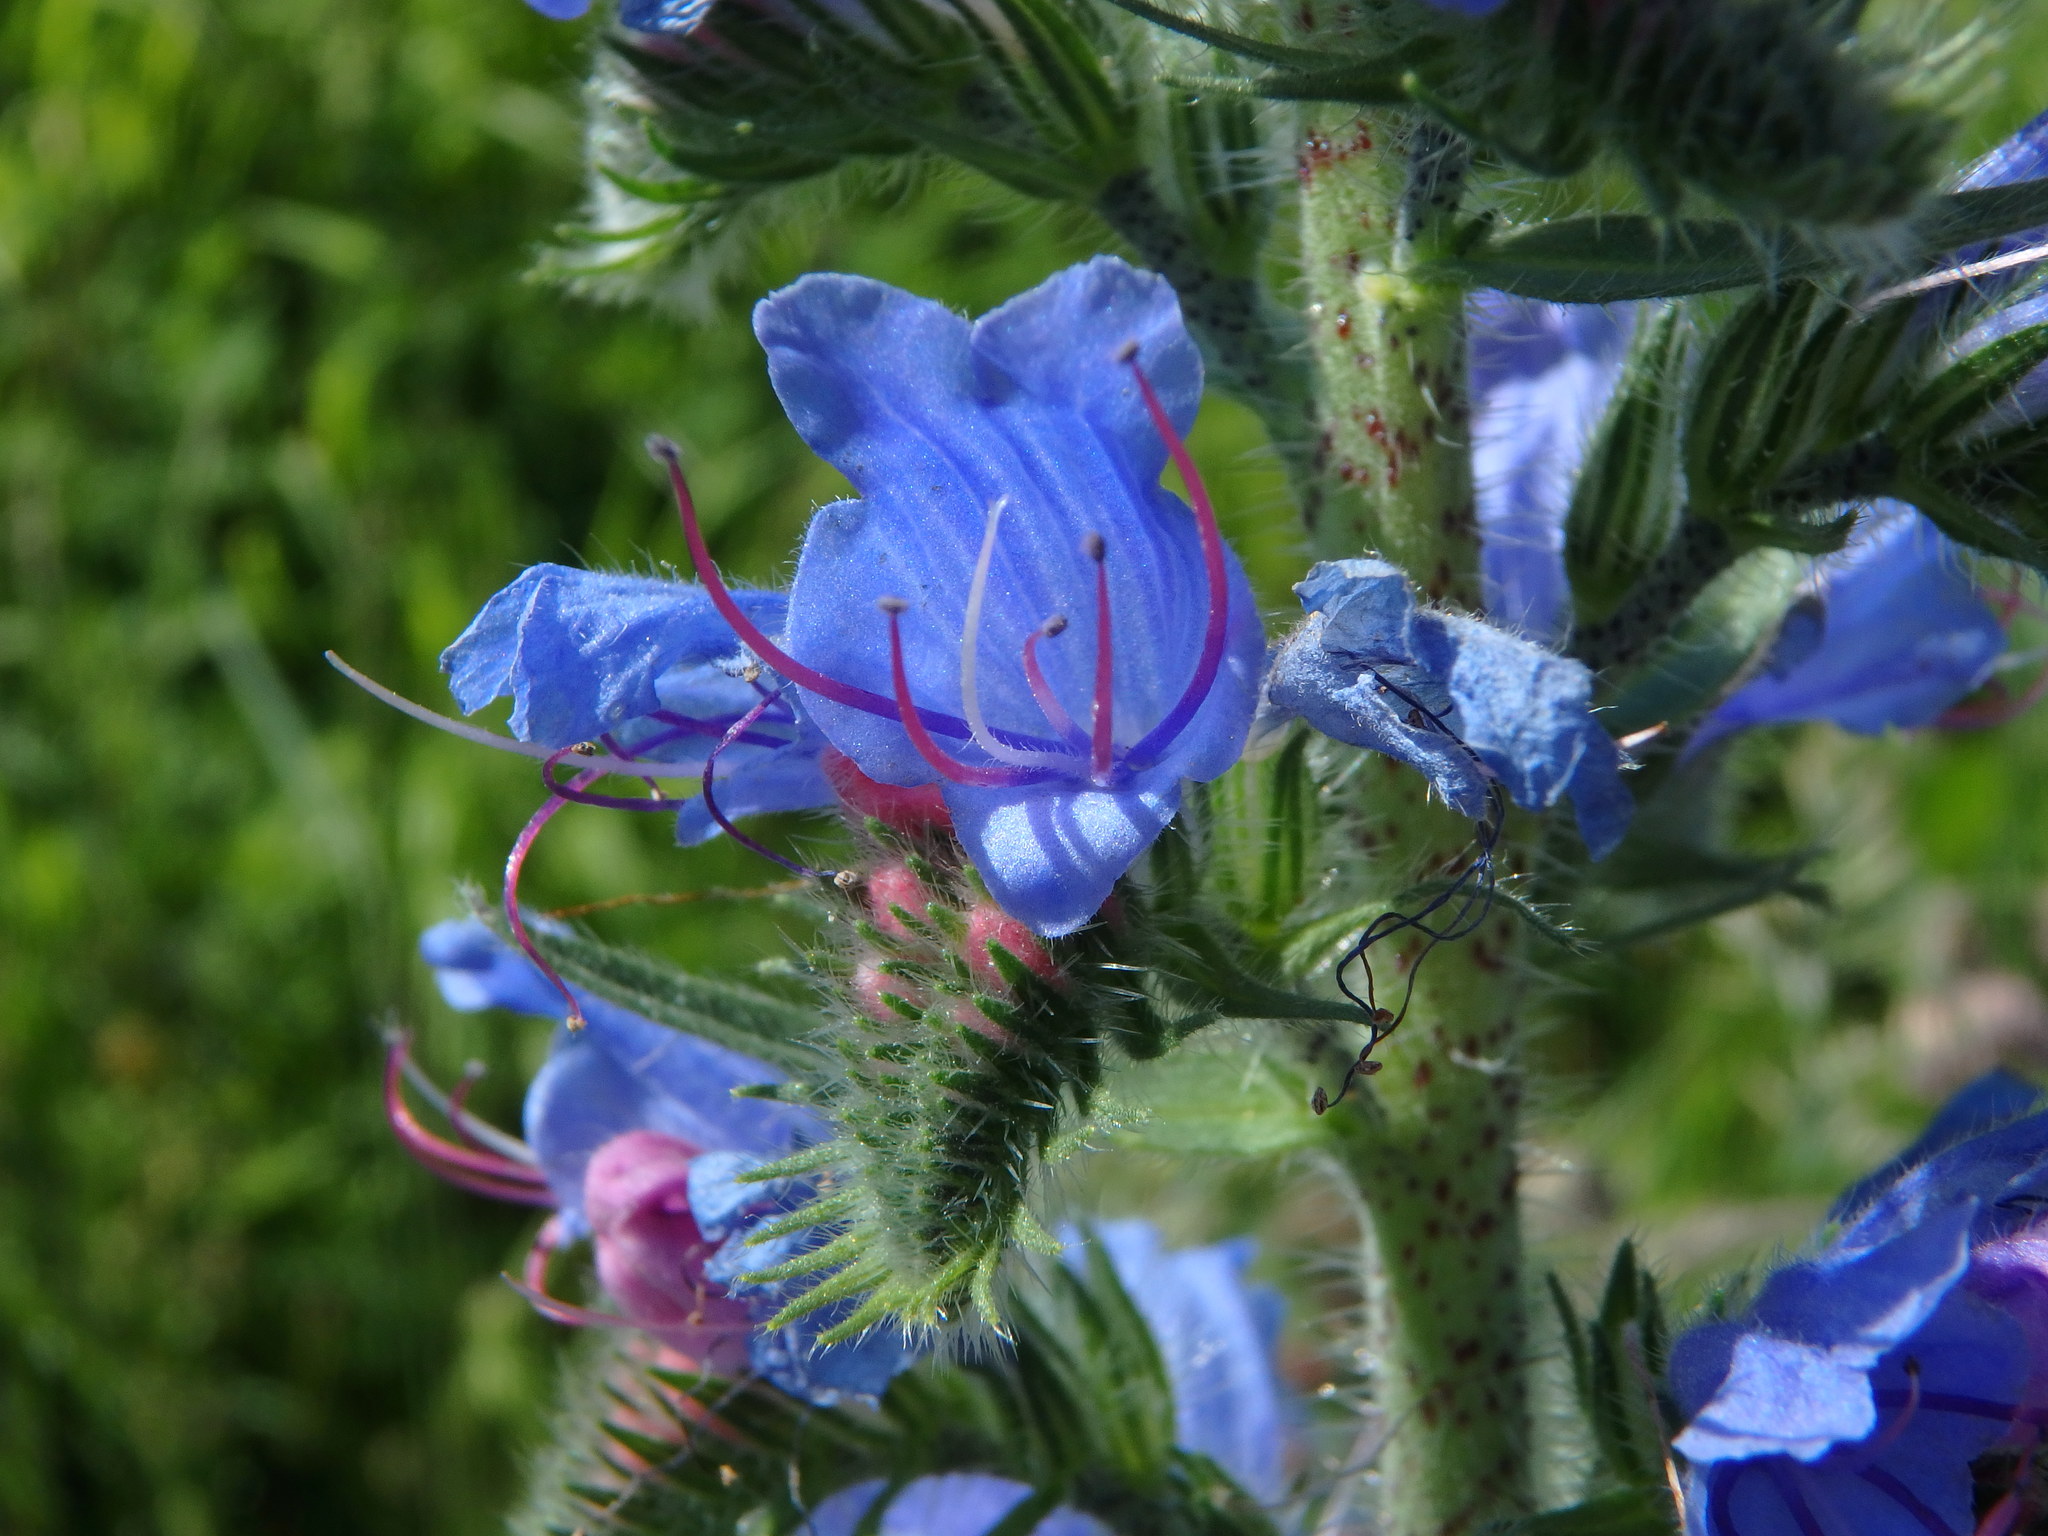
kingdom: Plantae
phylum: Tracheophyta
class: Magnoliopsida
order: Boraginales
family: Boraginaceae
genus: Echium
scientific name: Echium vulgare
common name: Common viper's bugloss
